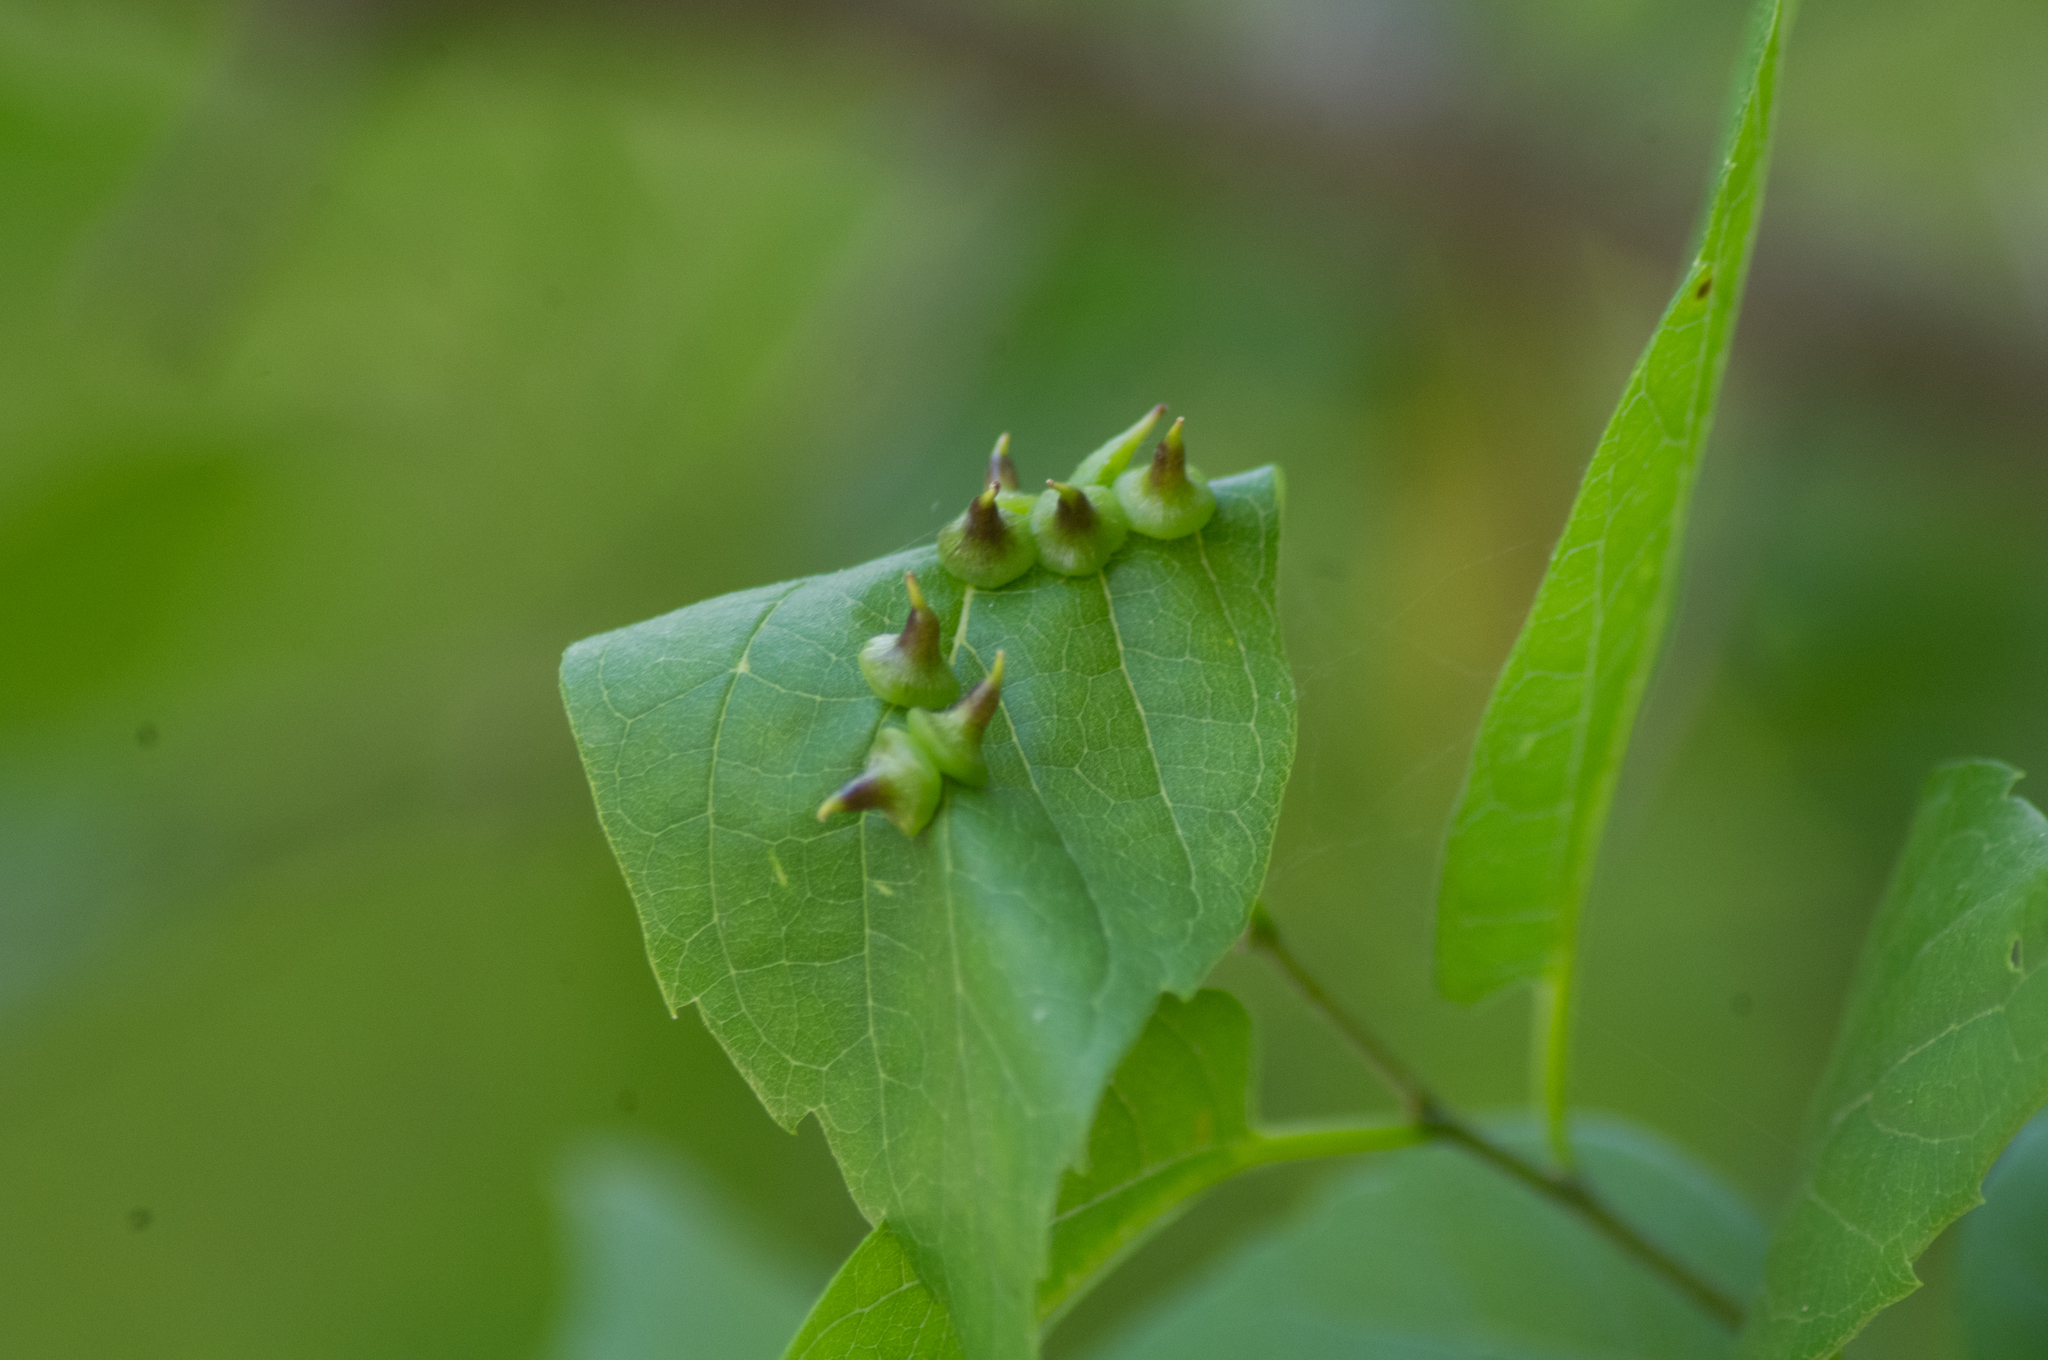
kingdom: Animalia
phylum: Arthropoda
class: Insecta
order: Diptera
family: Cecidomyiidae
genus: Celticecis
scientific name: Celticecis spiniformis
